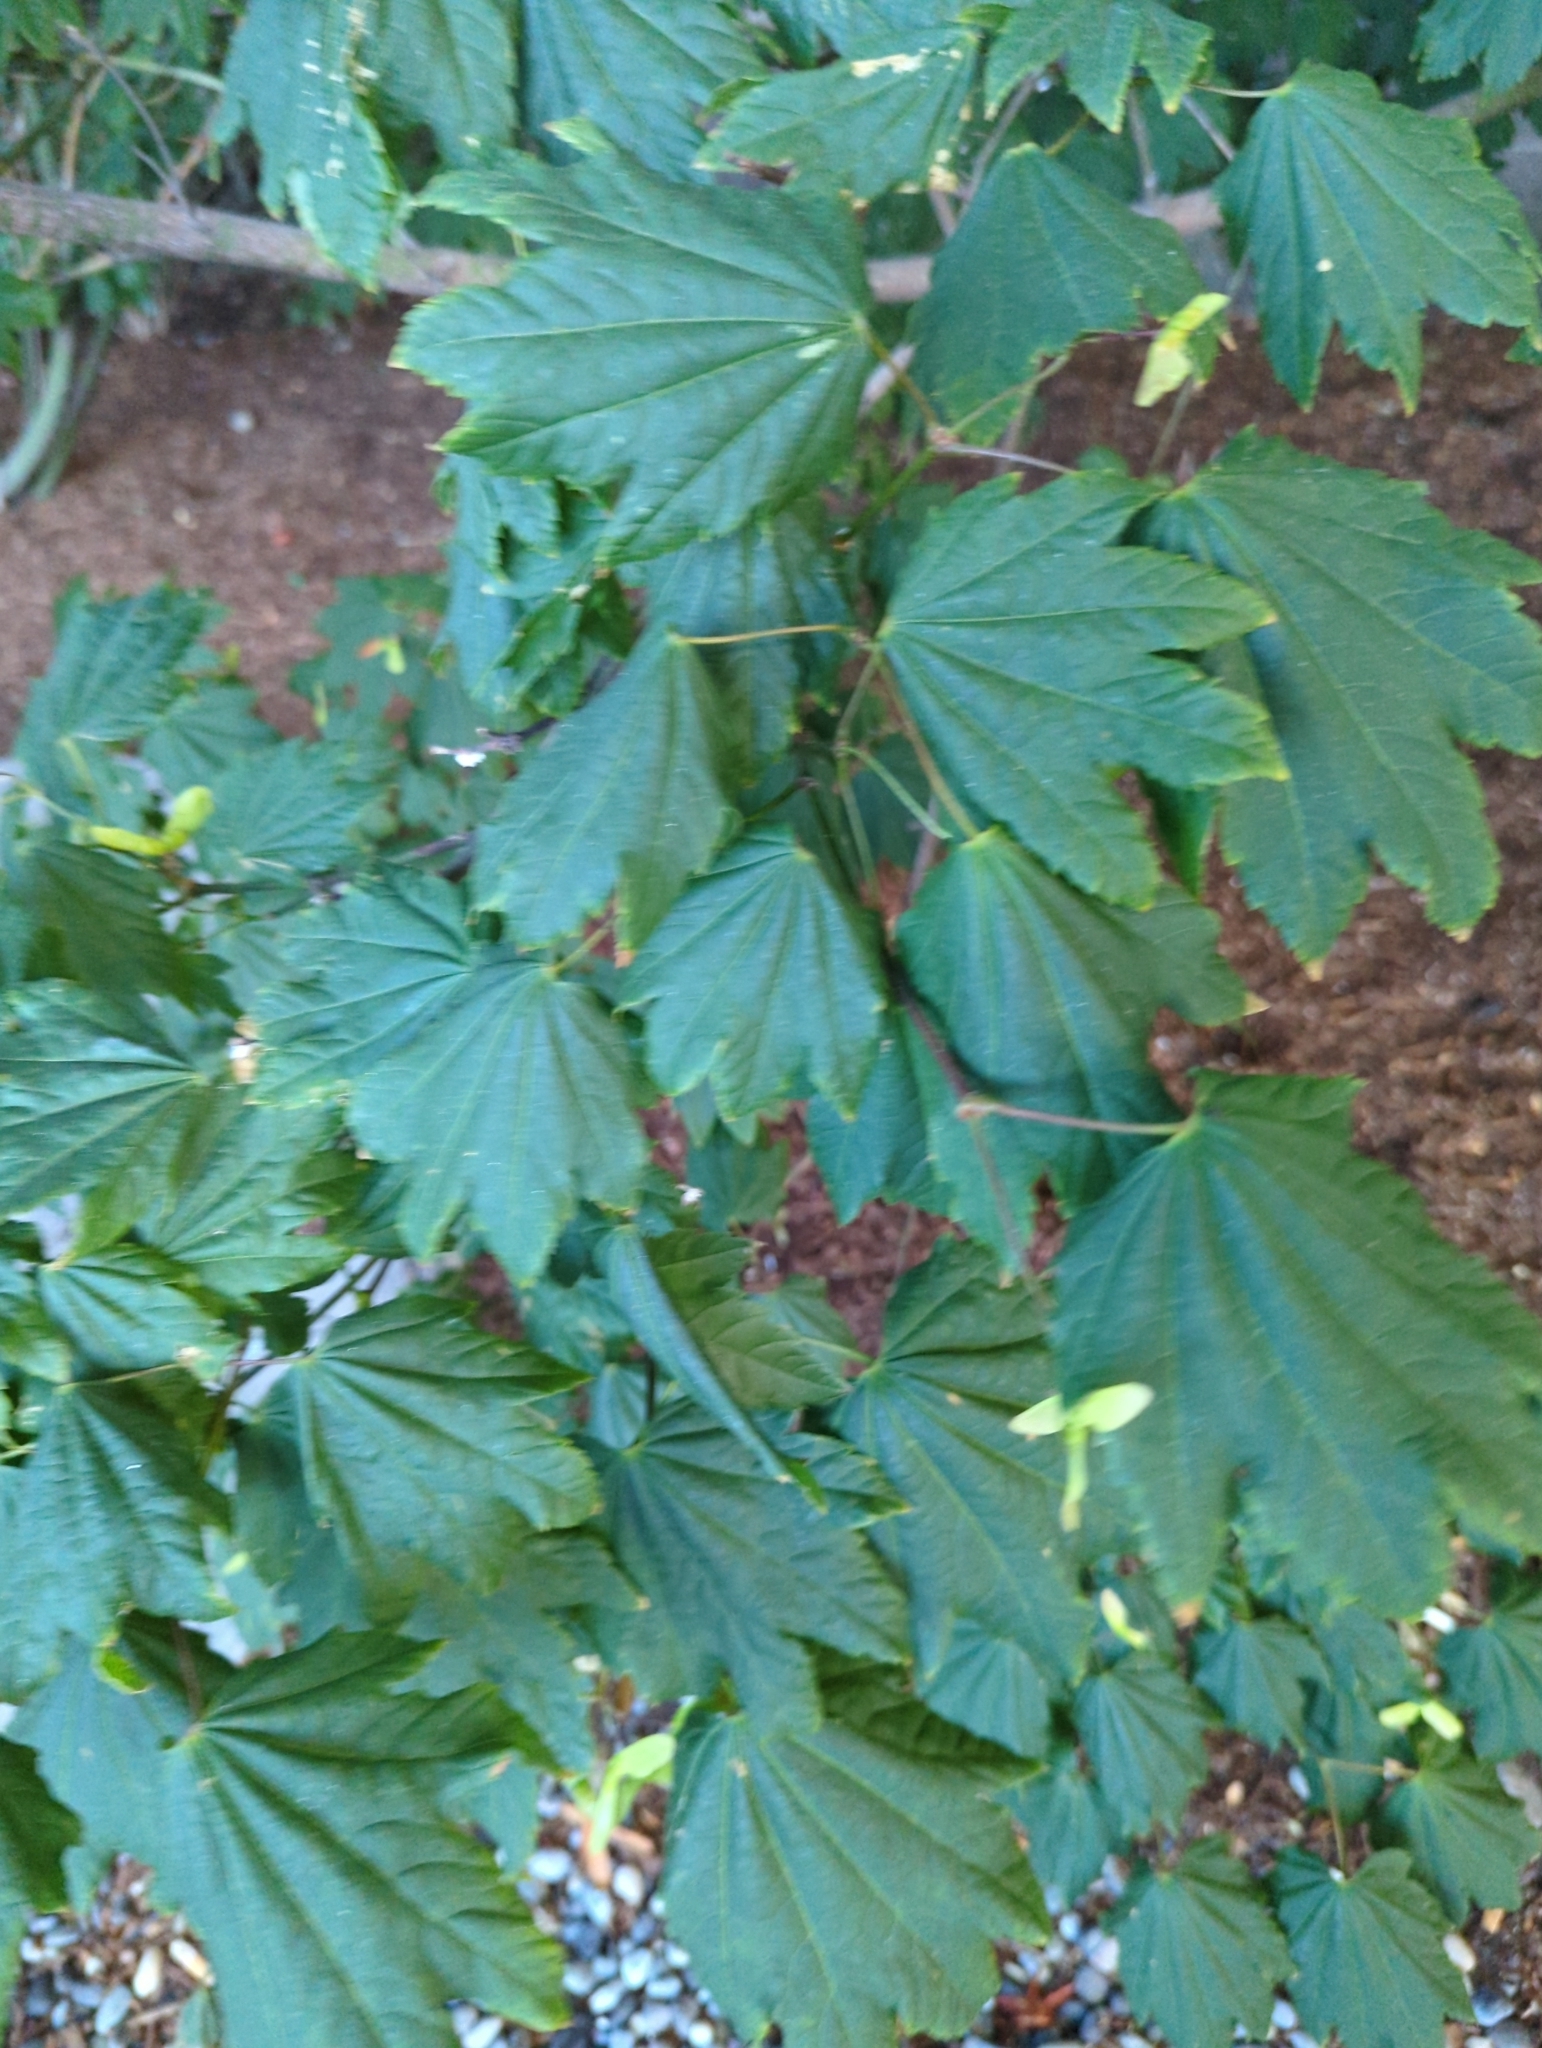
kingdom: Plantae
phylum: Tracheophyta
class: Magnoliopsida
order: Sapindales
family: Sapindaceae
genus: Acer
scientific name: Acer circinatum
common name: Vine maple
